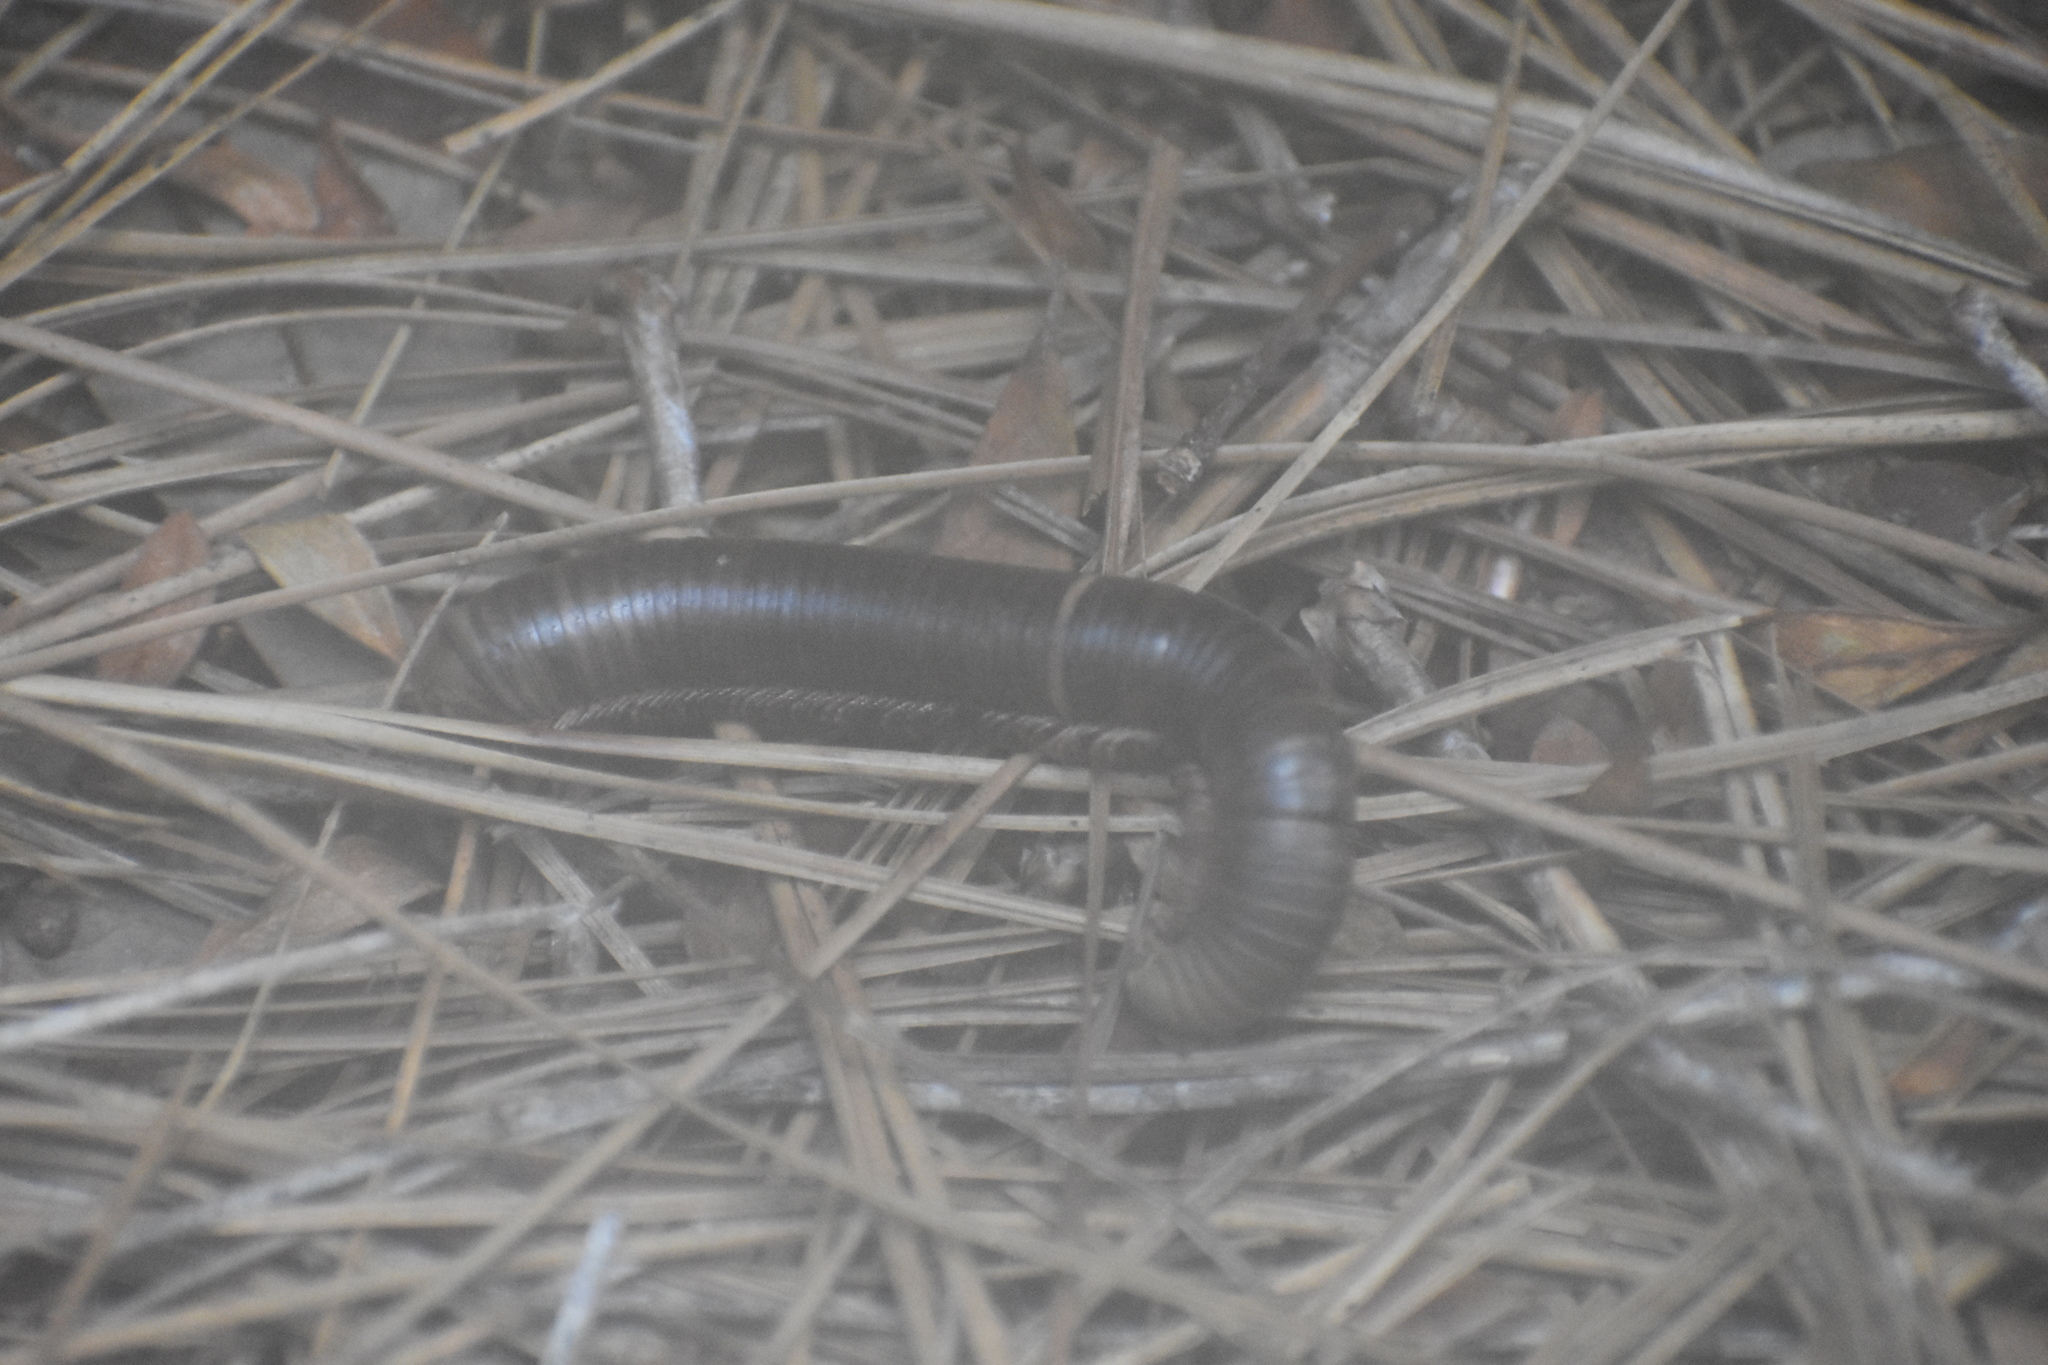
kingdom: Animalia
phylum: Arthropoda
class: Diplopoda
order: Spirobolida
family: Spirobolidae
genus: Narceus
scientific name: Narceus
